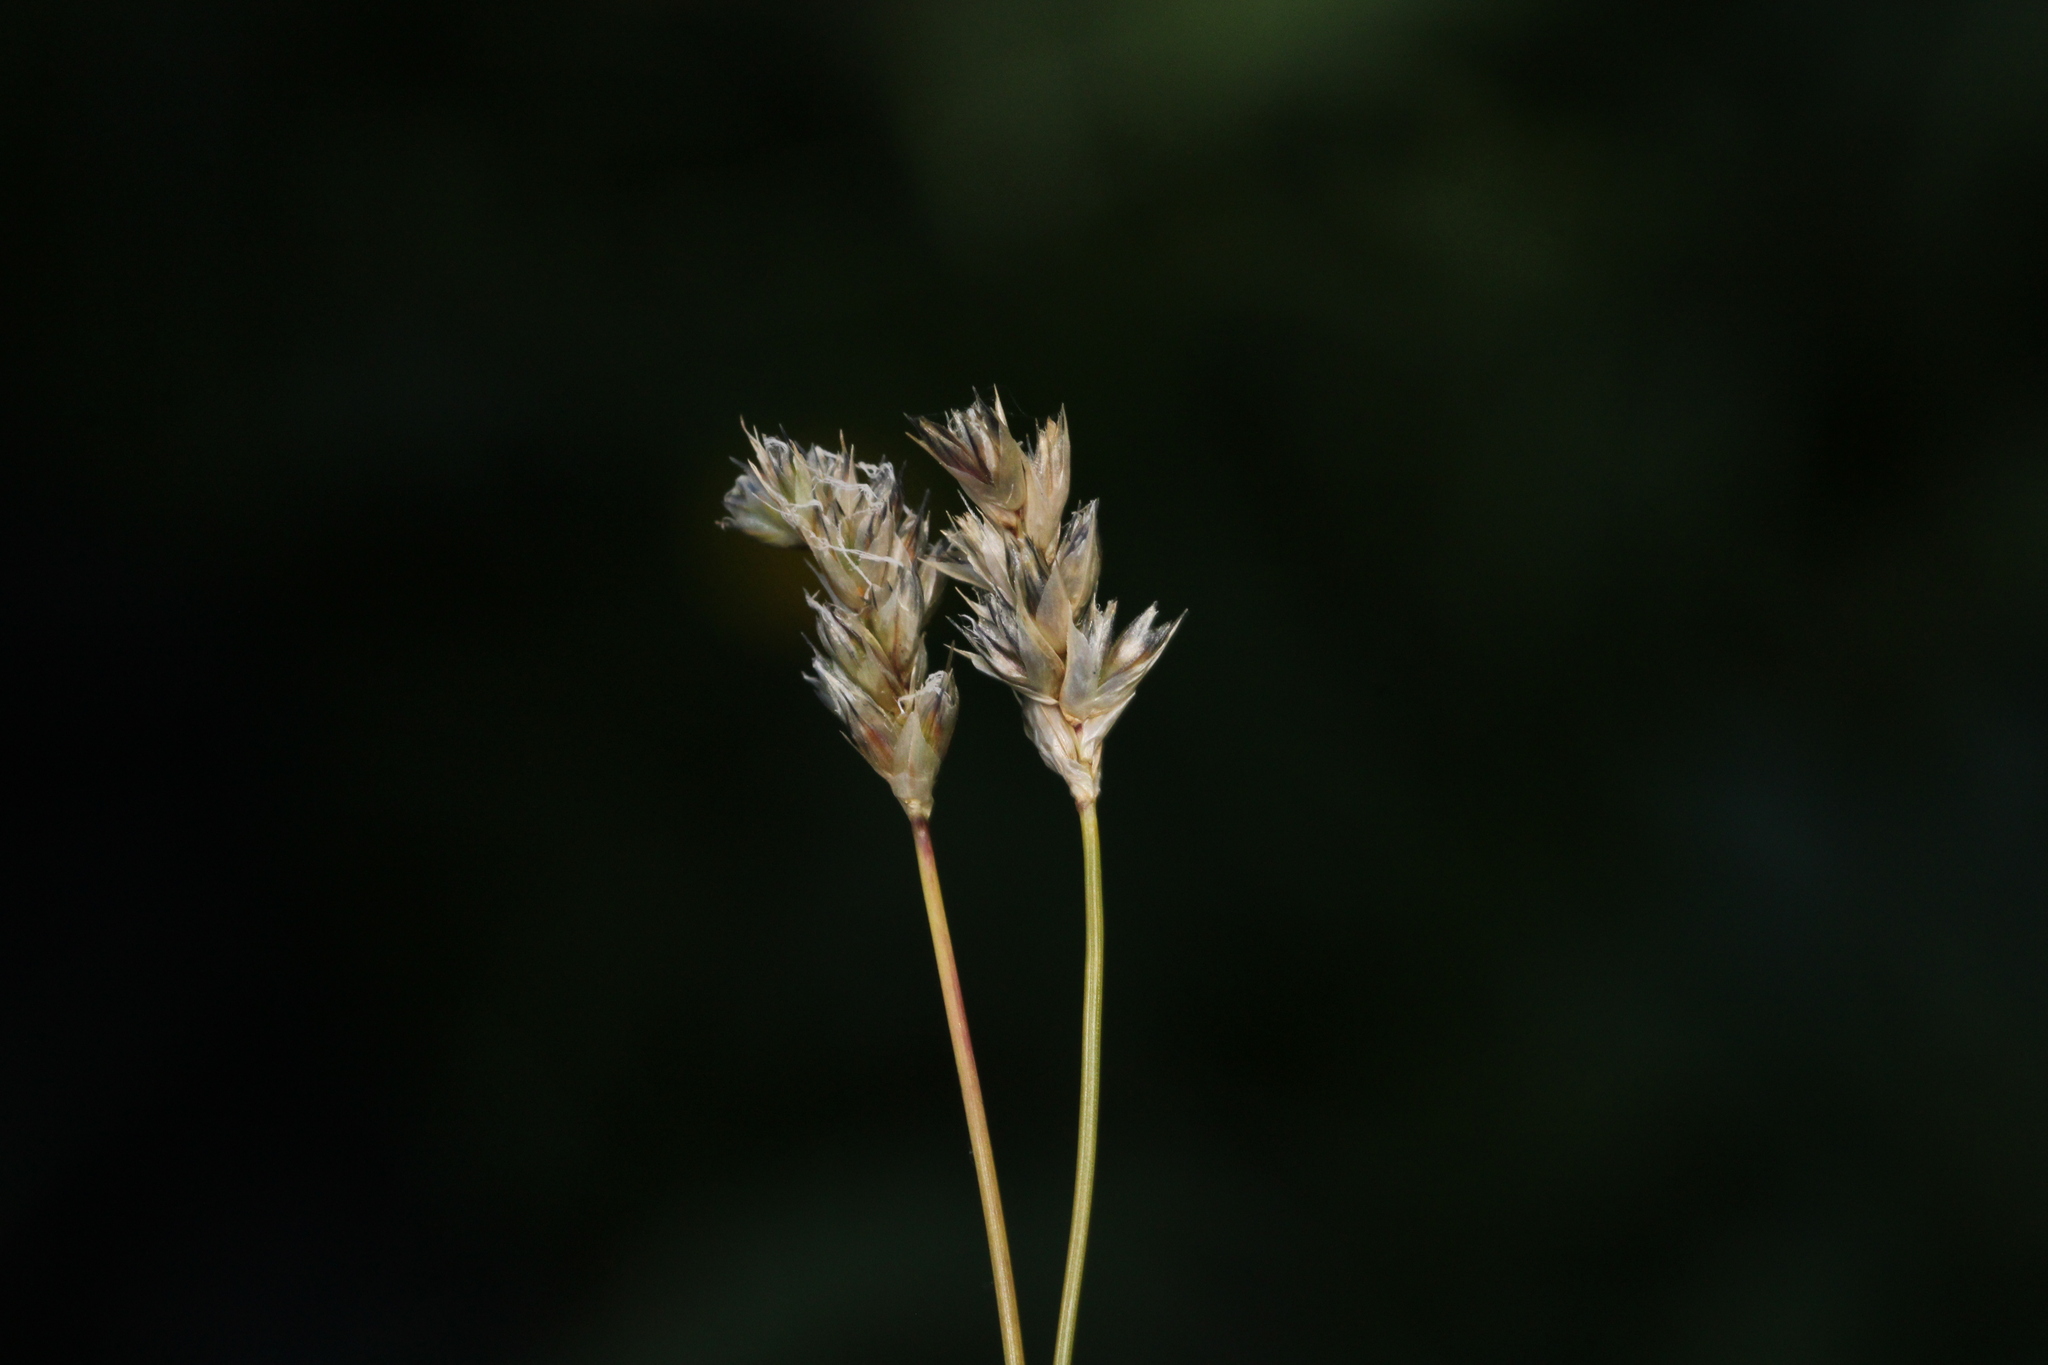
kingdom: Plantae
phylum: Tracheophyta
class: Liliopsida
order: Poales
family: Poaceae
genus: Sesleria
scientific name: Sesleria caerulea
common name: Blue moor-grass
